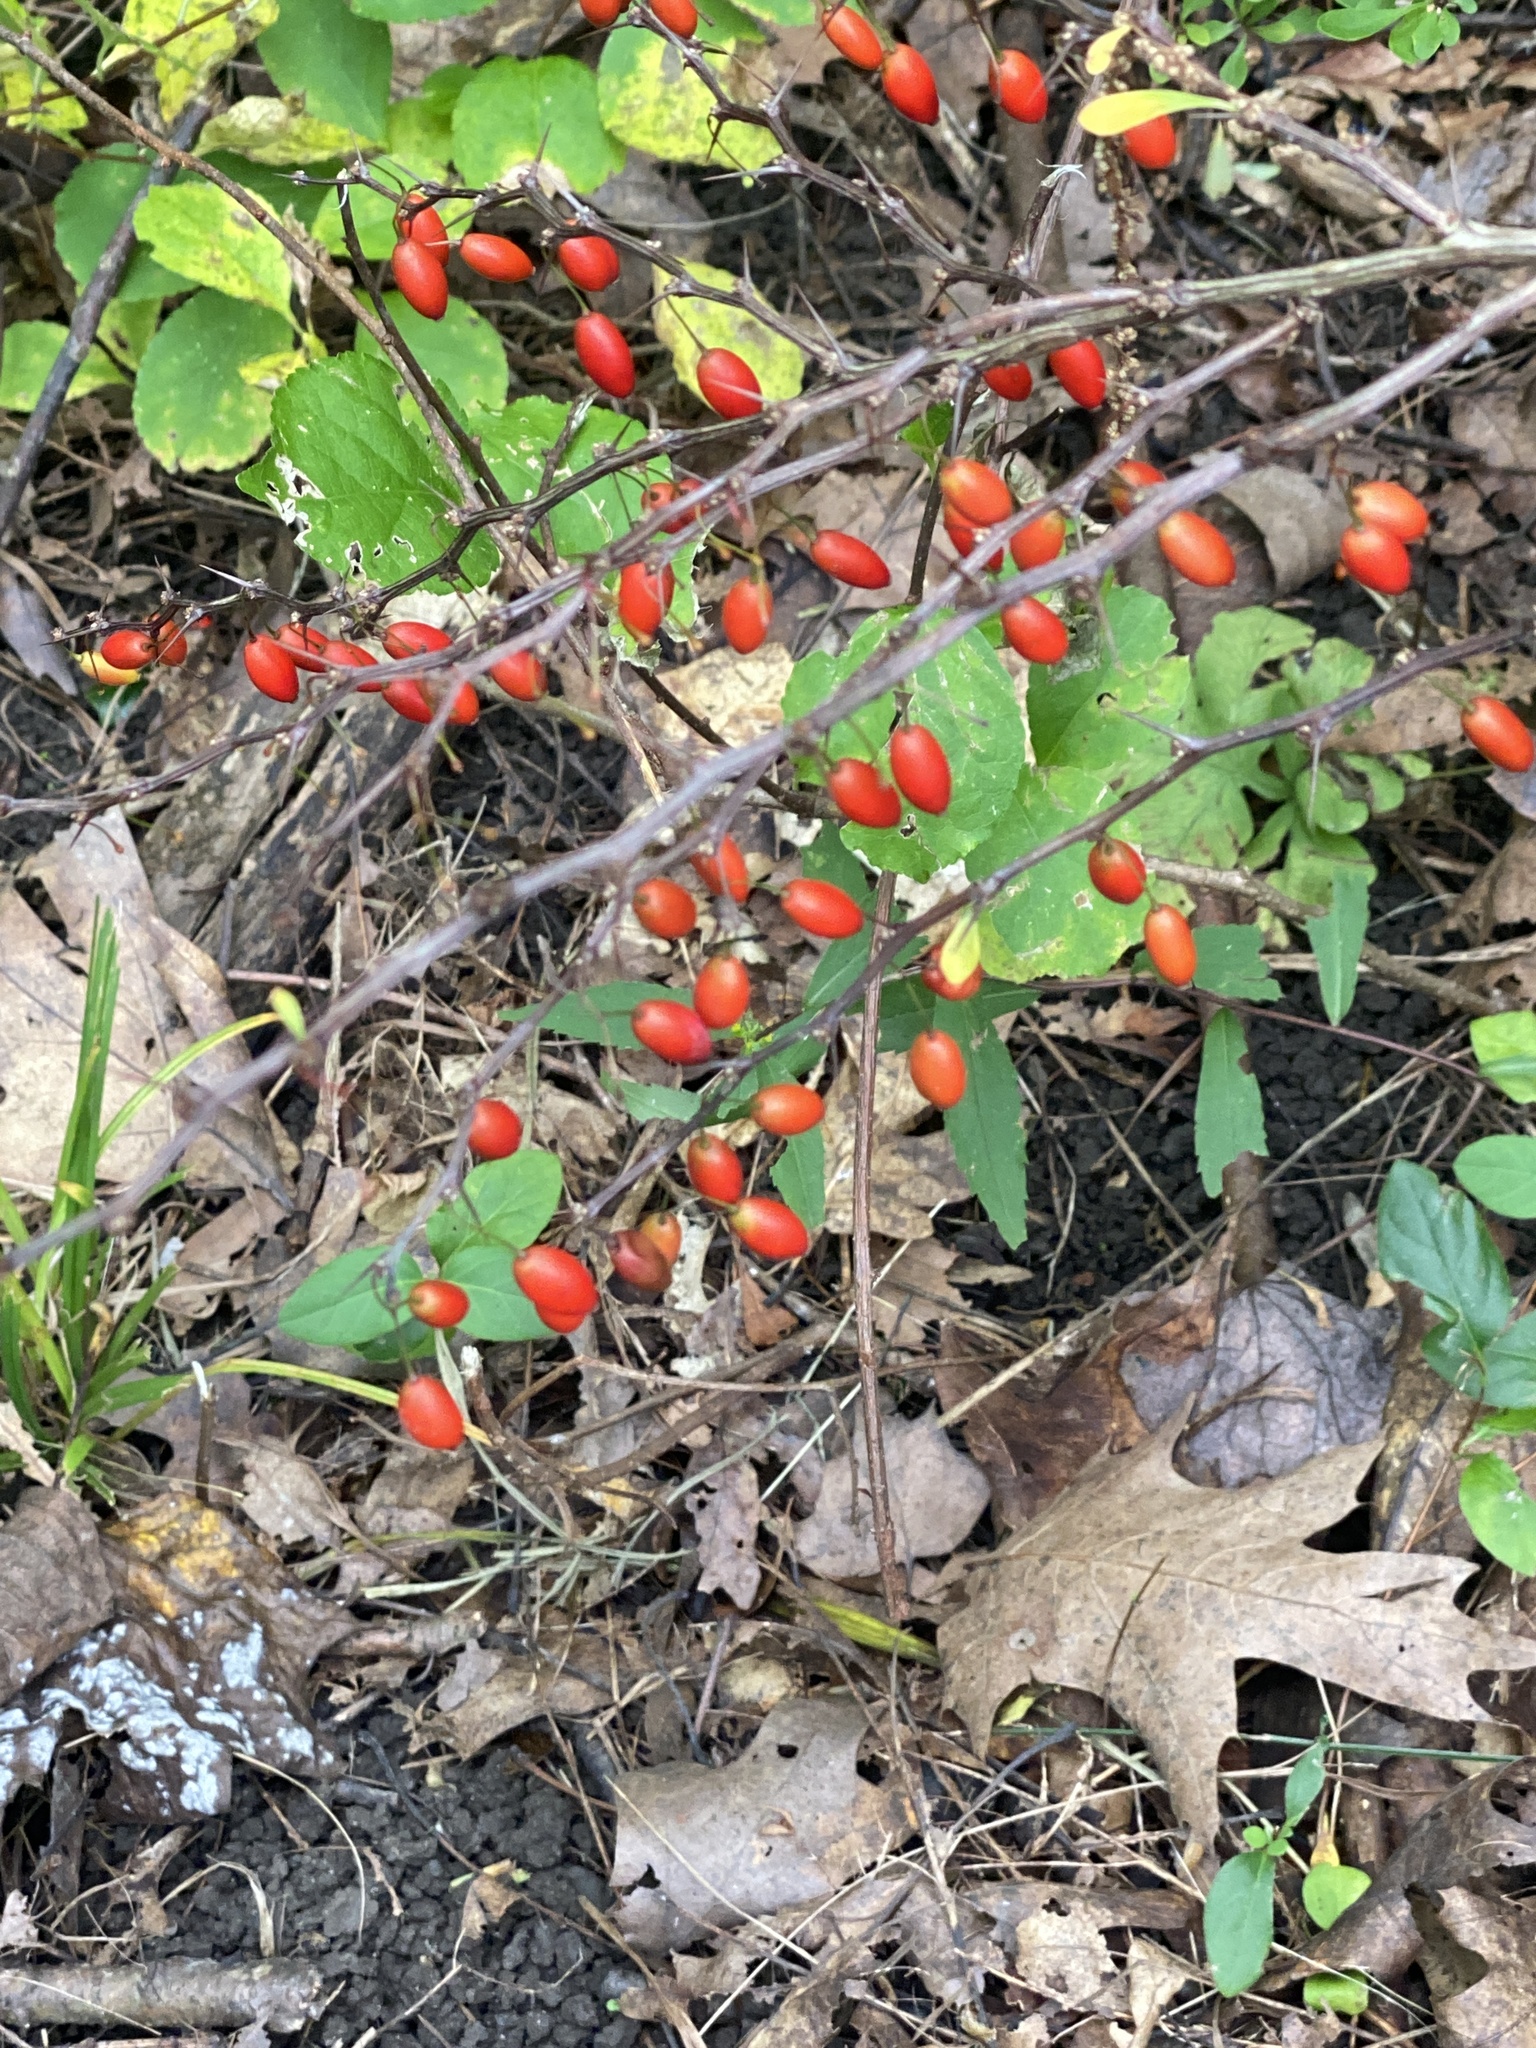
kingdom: Plantae
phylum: Tracheophyta
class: Magnoliopsida
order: Ranunculales
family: Berberidaceae
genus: Berberis
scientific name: Berberis thunbergii
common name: Japanese barberry
